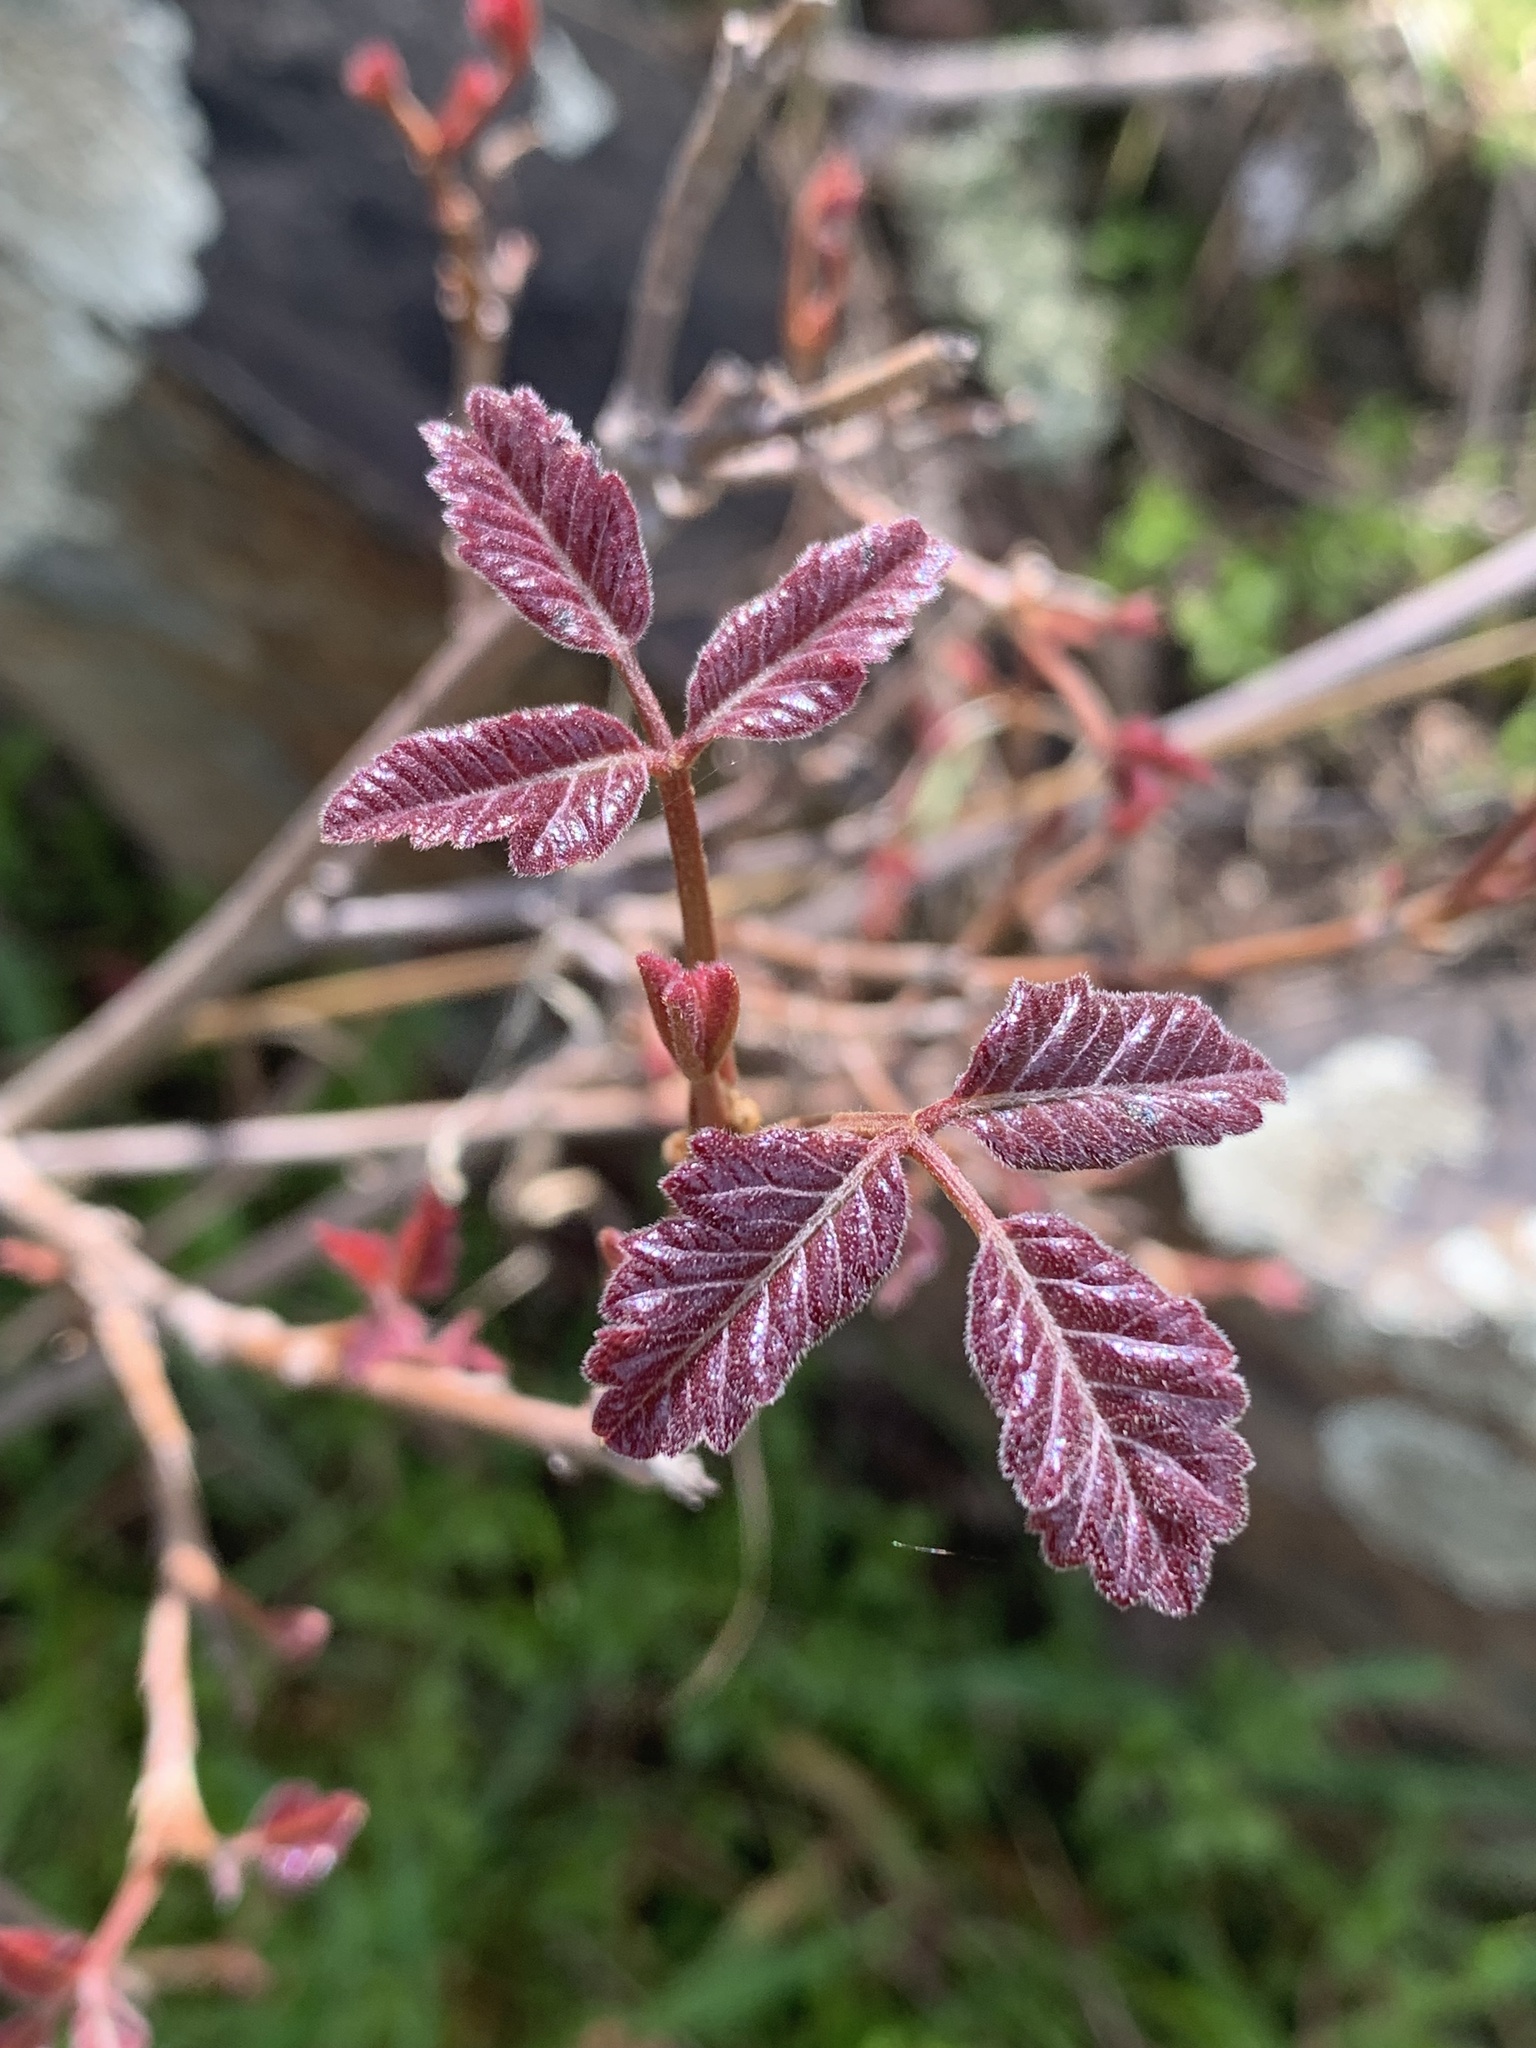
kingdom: Plantae
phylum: Tracheophyta
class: Magnoliopsida
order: Sapindales
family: Anacardiaceae
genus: Toxicodendron
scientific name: Toxicodendron diversilobum
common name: Pacific poison-oak
